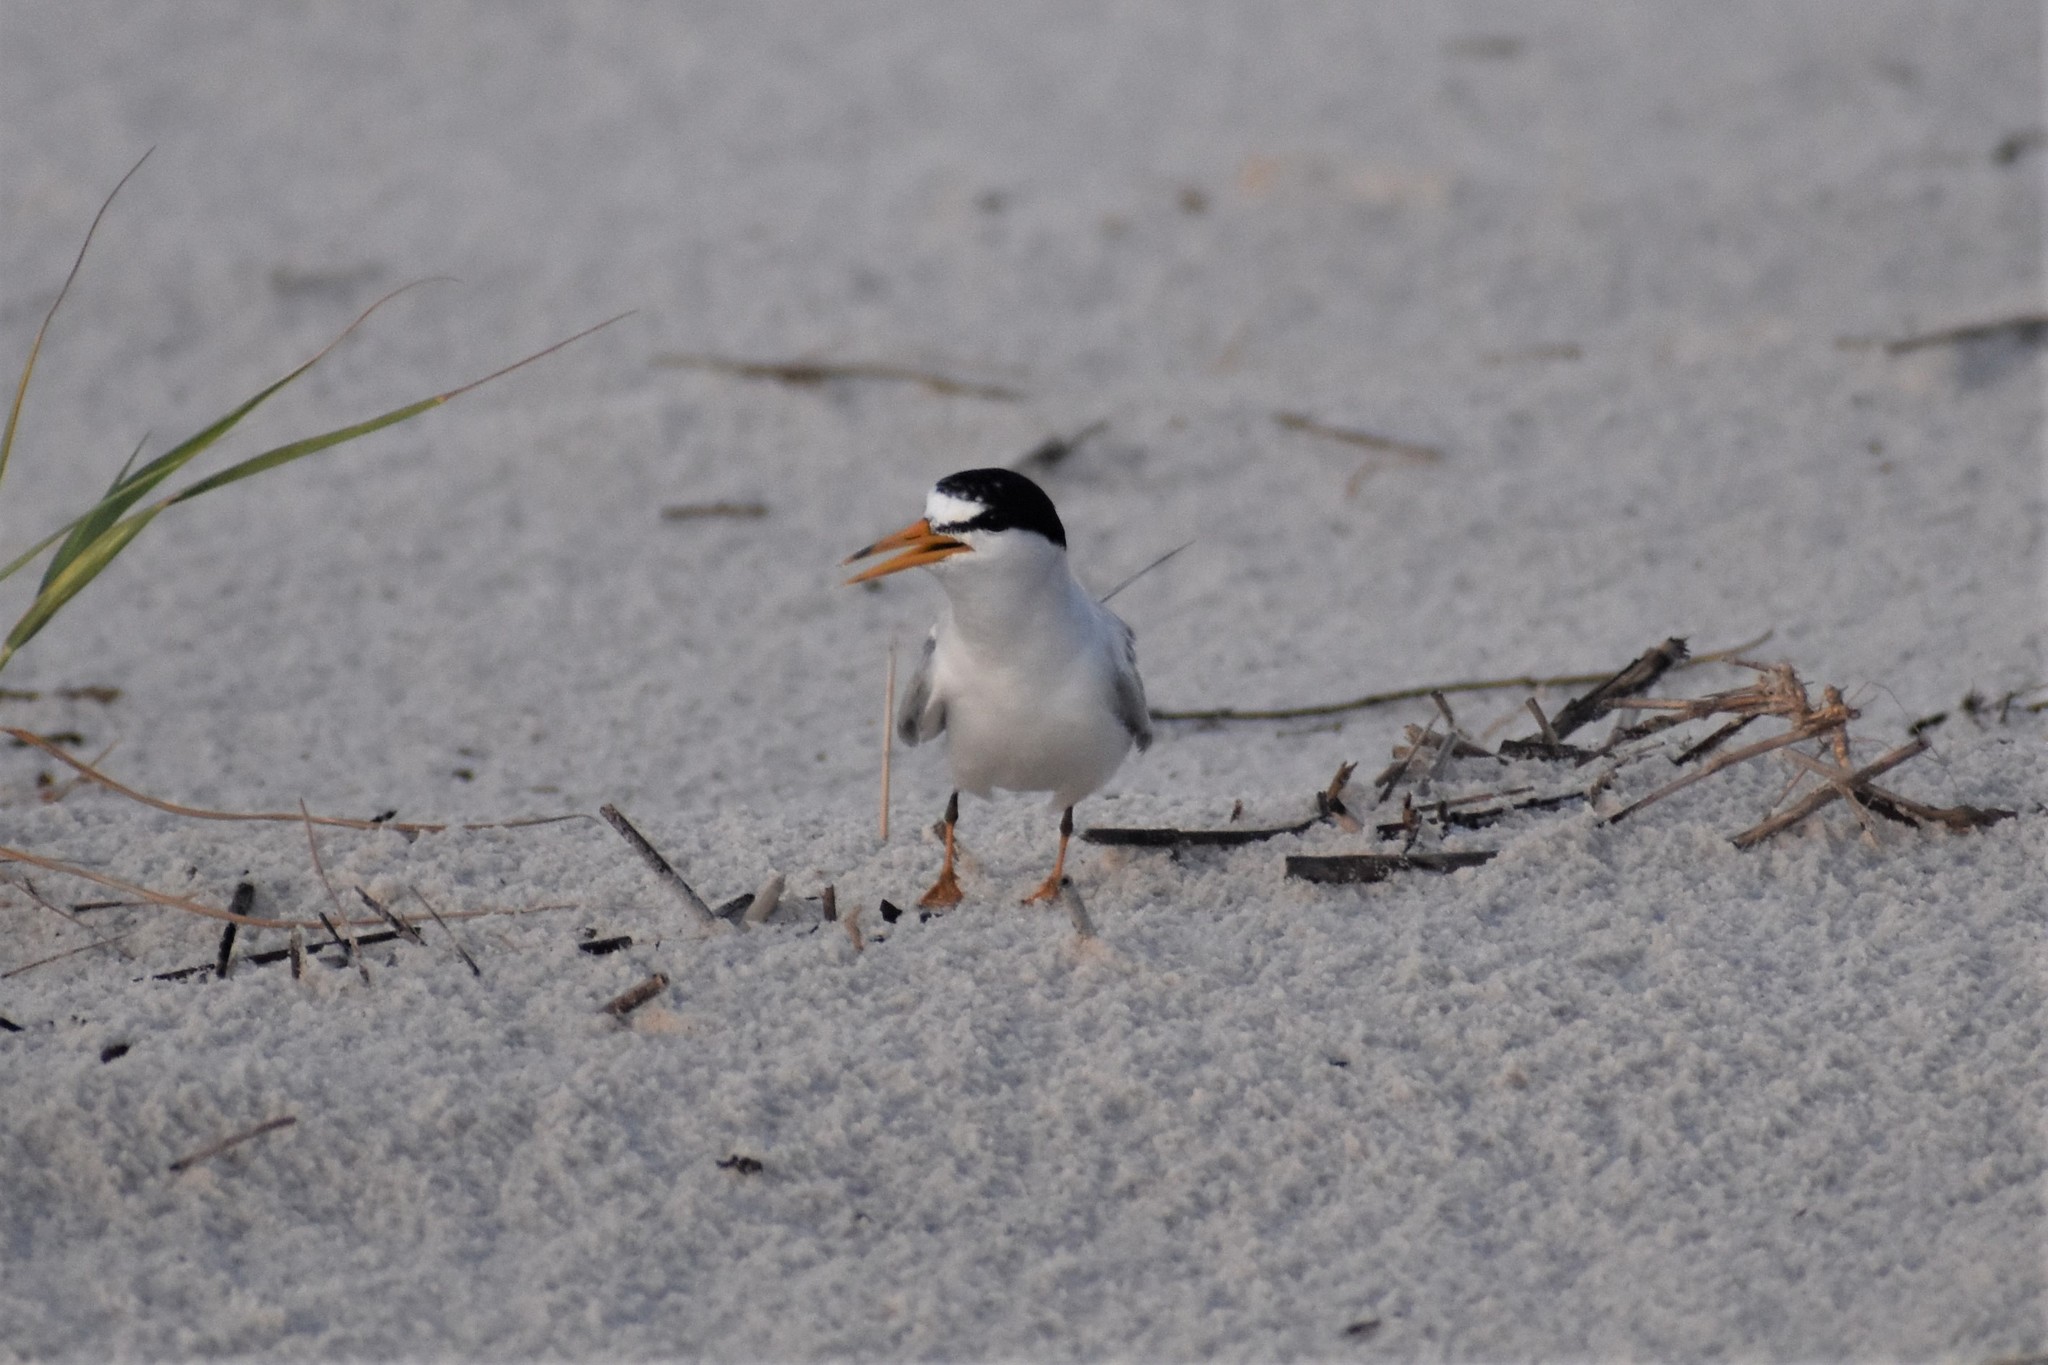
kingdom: Animalia
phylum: Chordata
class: Aves
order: Charadriiformes
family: Laridae
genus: Sternula
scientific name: Sternula antillarum
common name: Least tern
